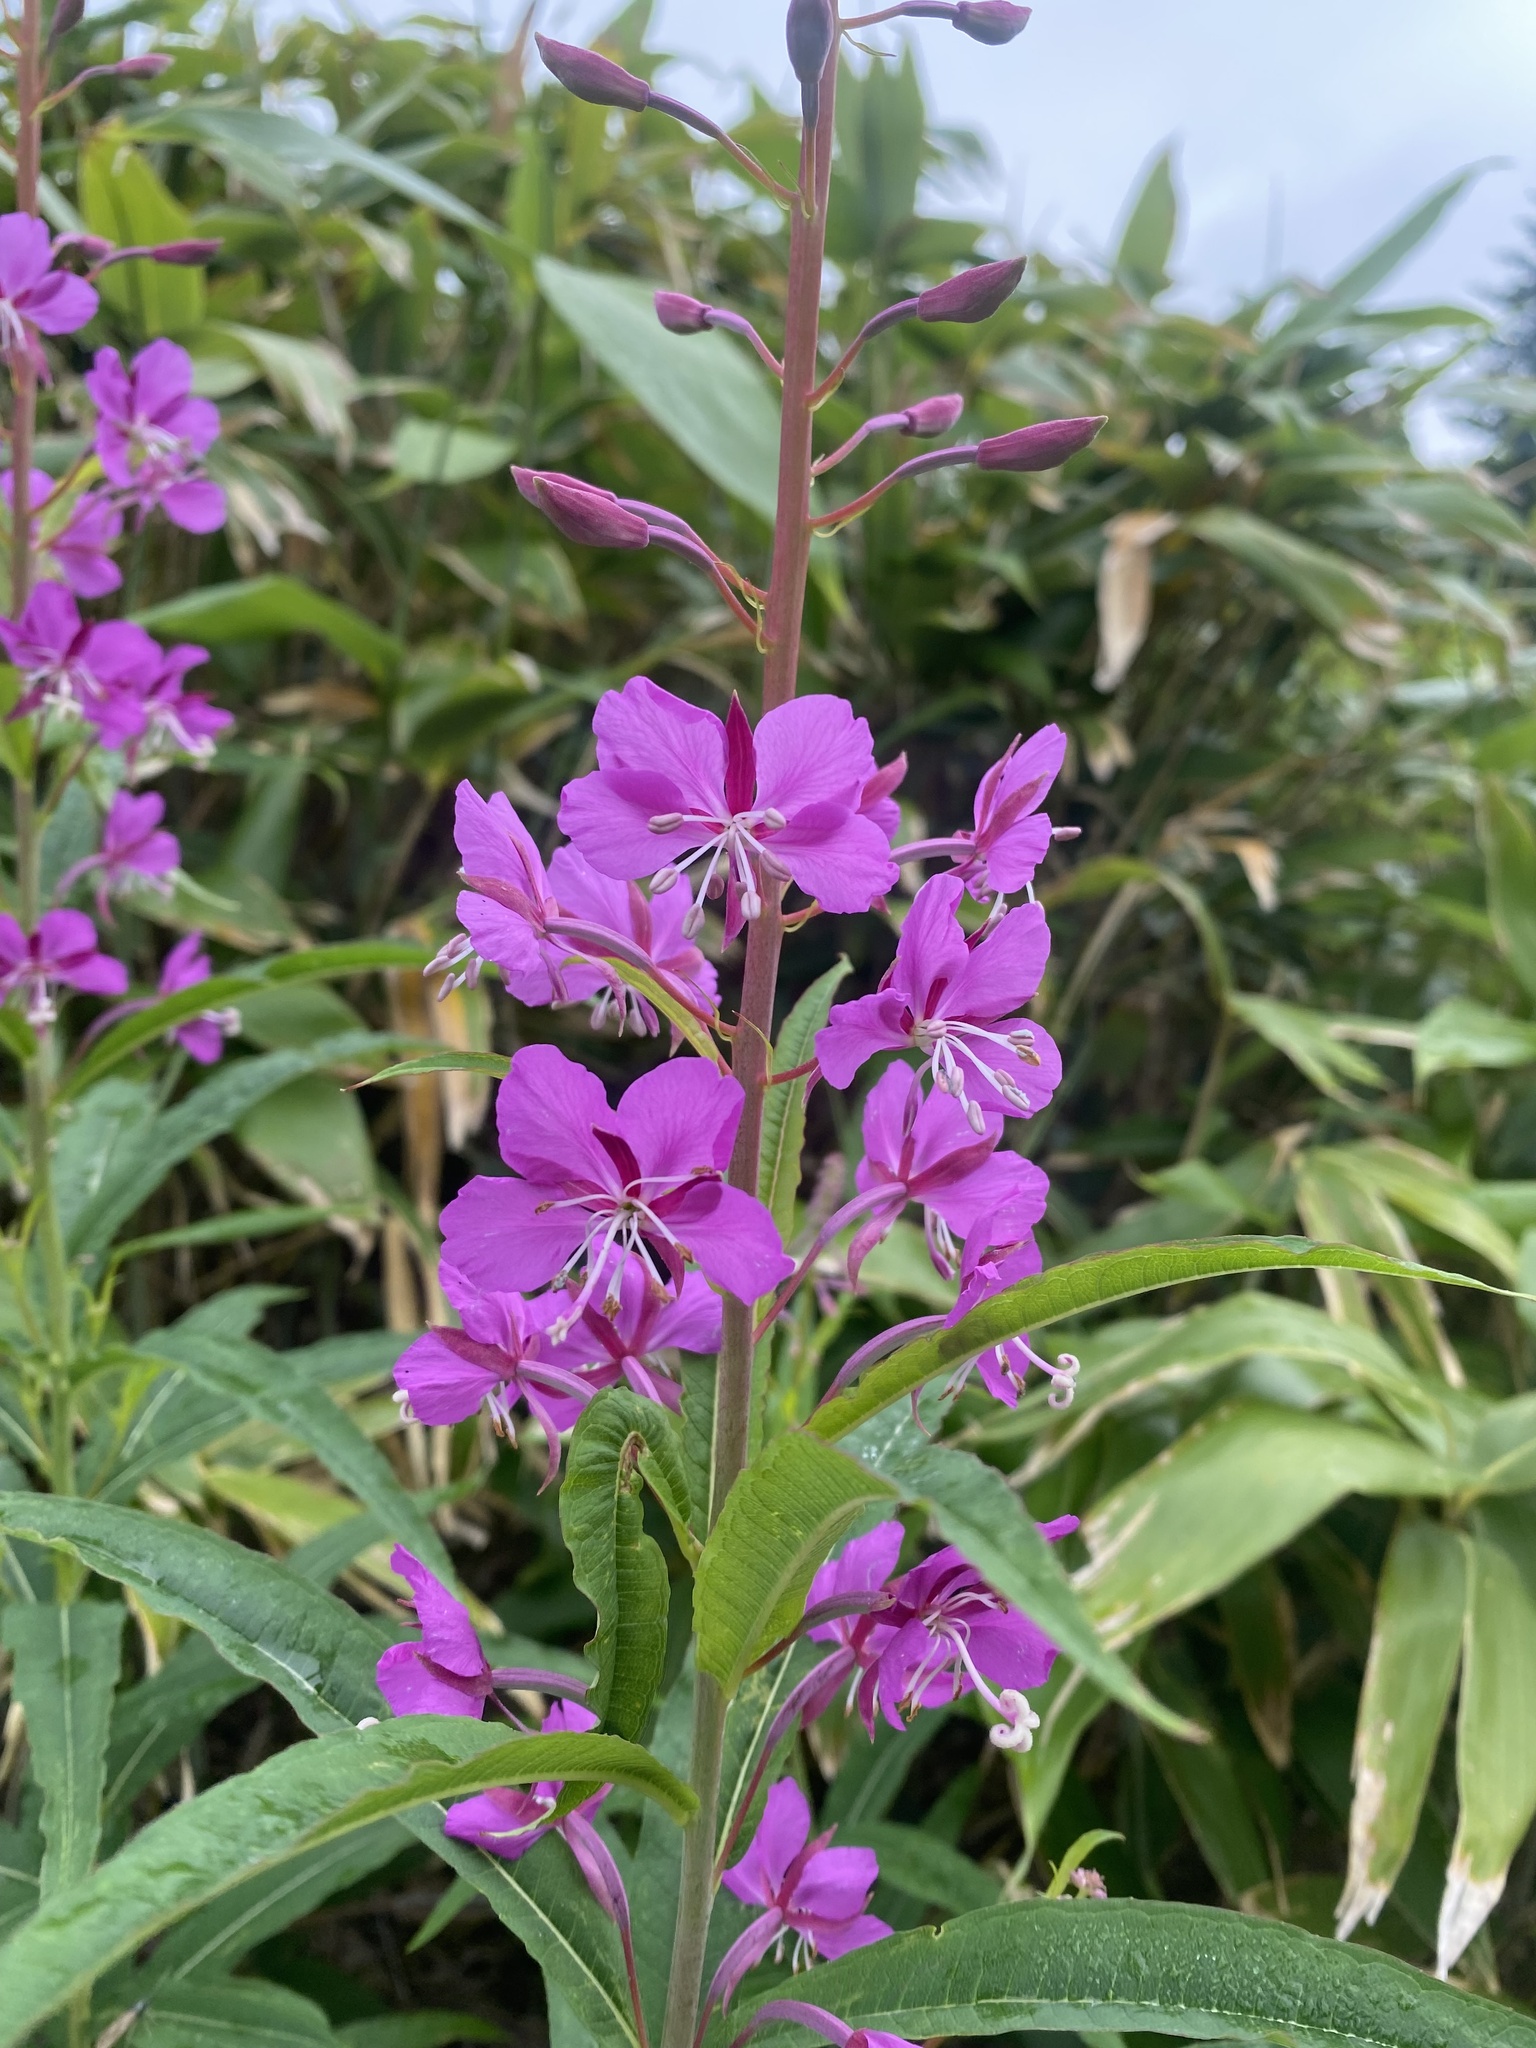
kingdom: Plantae
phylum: Tracheophyta
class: Magnoliopsida
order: Myrtales
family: Onagraceae
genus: Chamaenerion
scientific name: Chamaenerion angustifolium
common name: Fireweed
